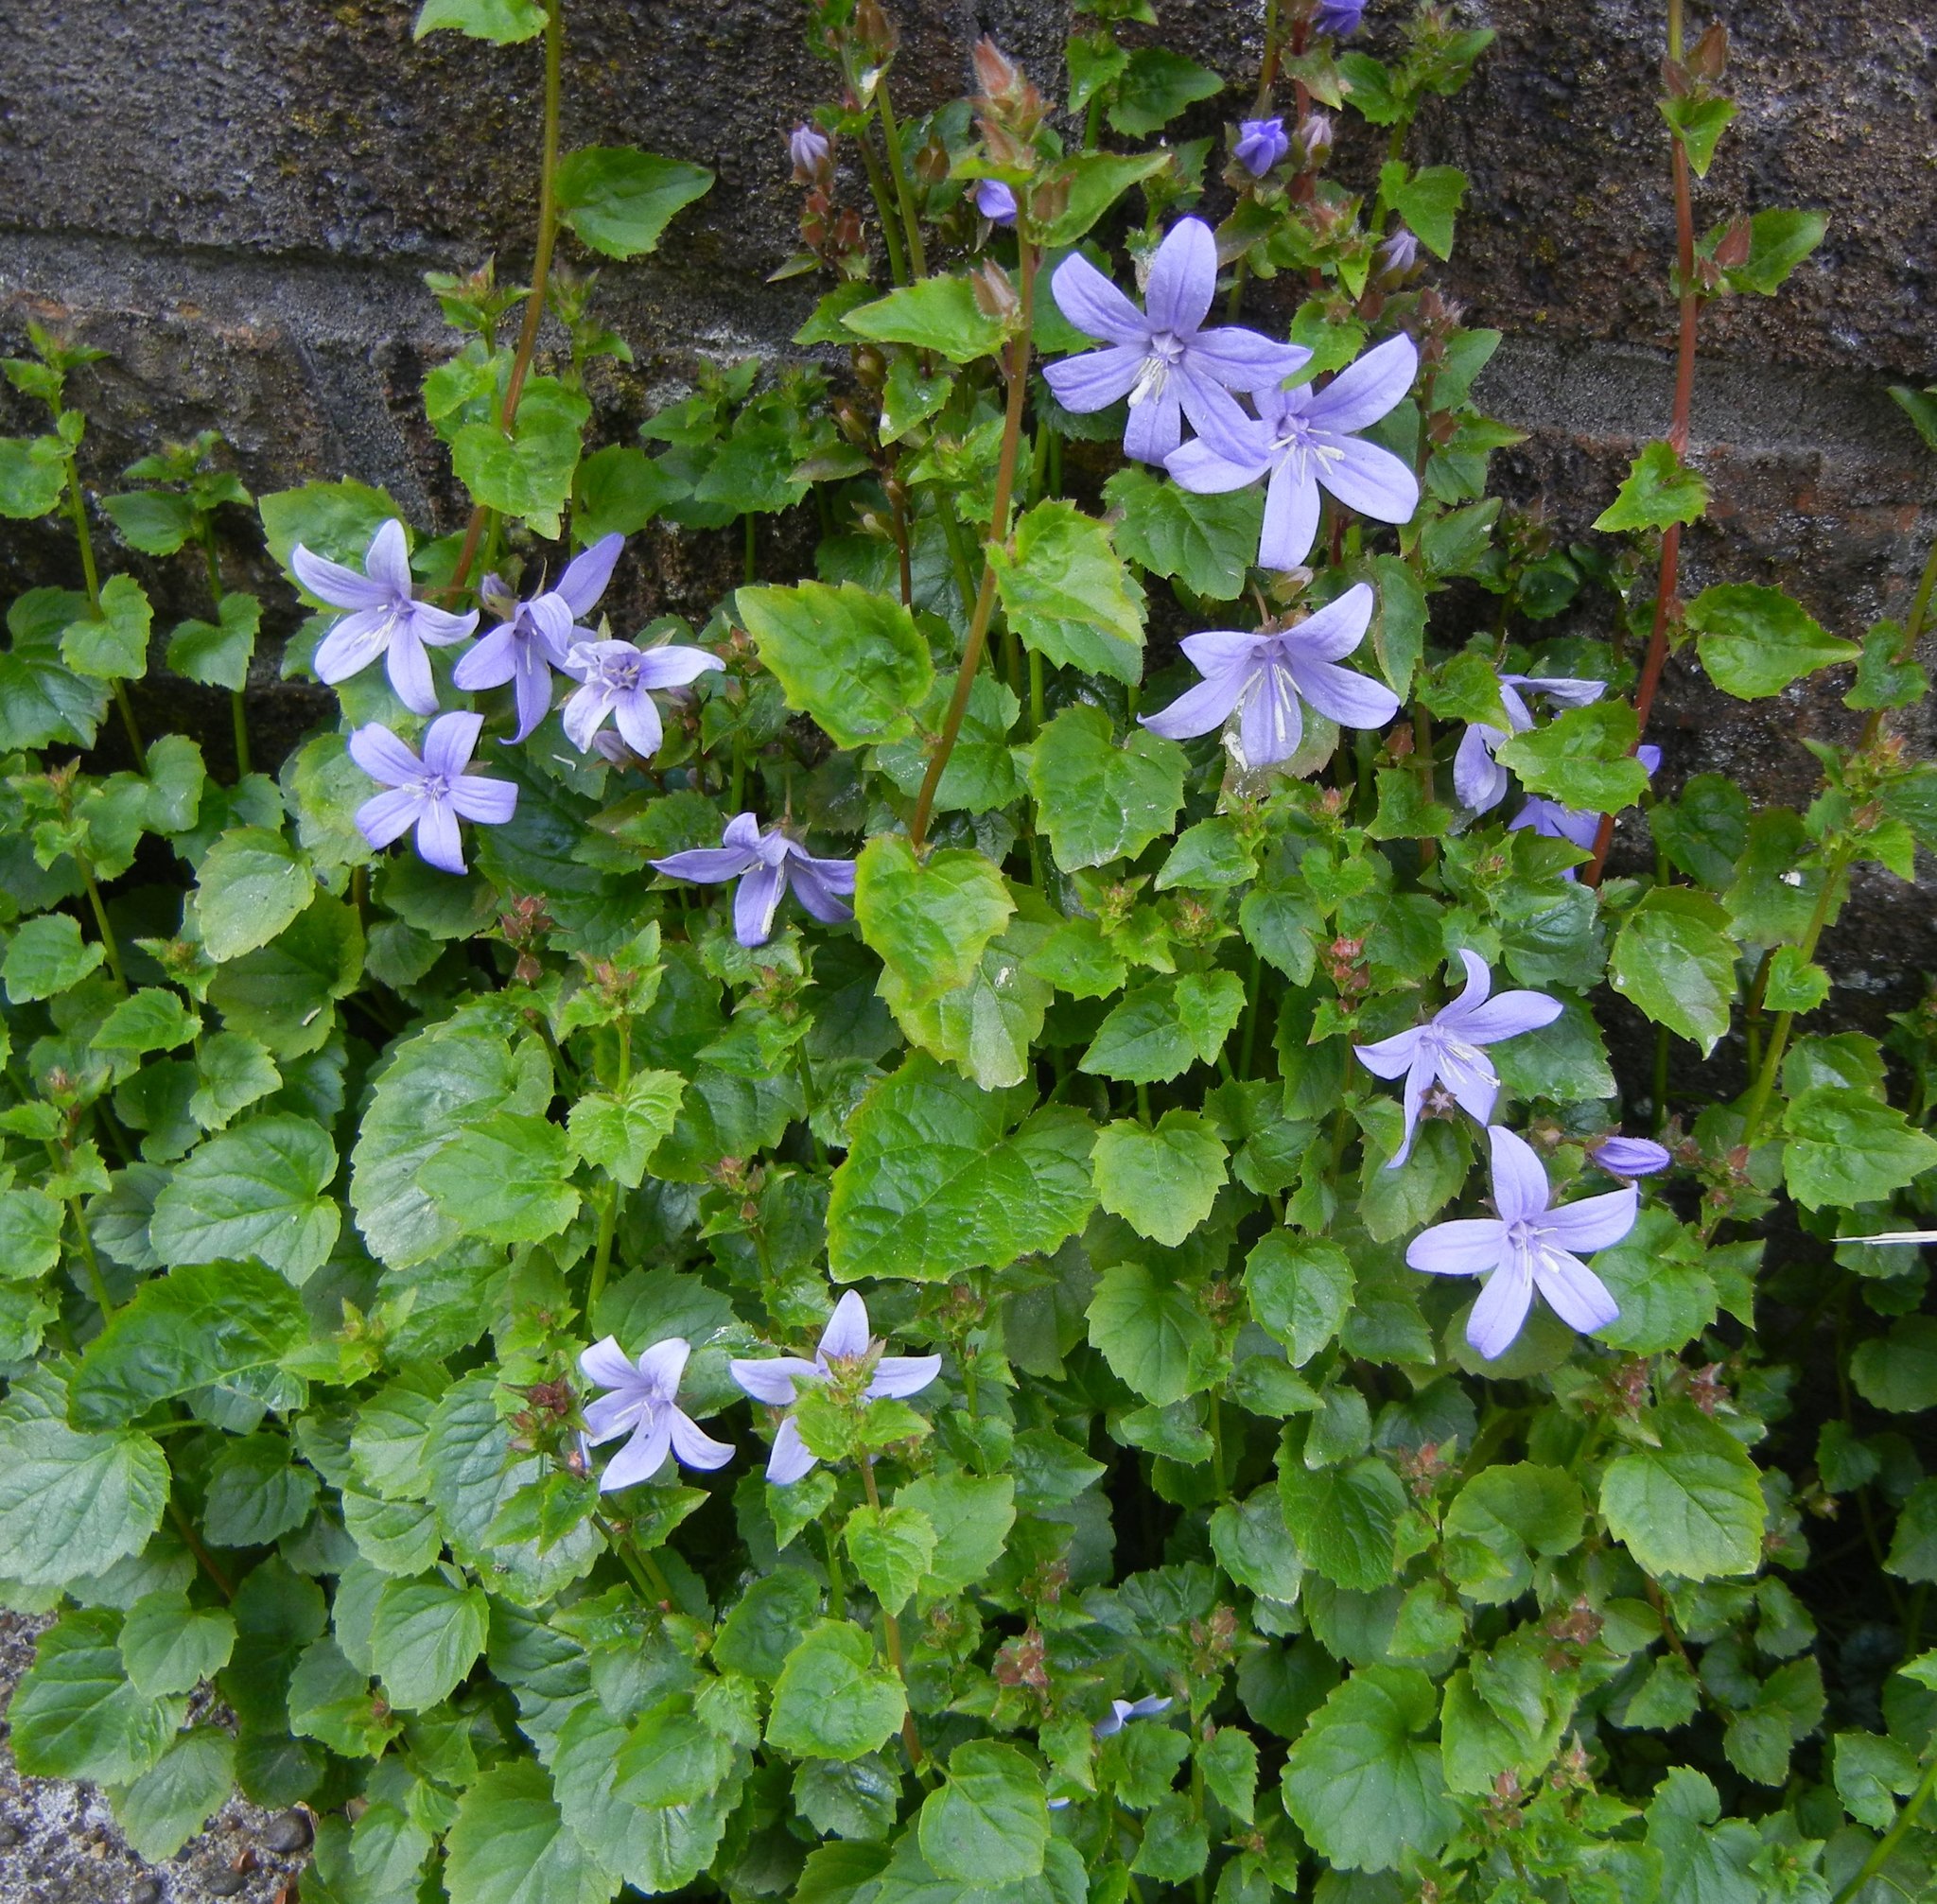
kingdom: Plantae
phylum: Tracheophyta
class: Magnoliopsida
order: Asterales
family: Campanulaceae
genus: Campanula
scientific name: Campanula poscharskyana
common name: Trailing bellflower
